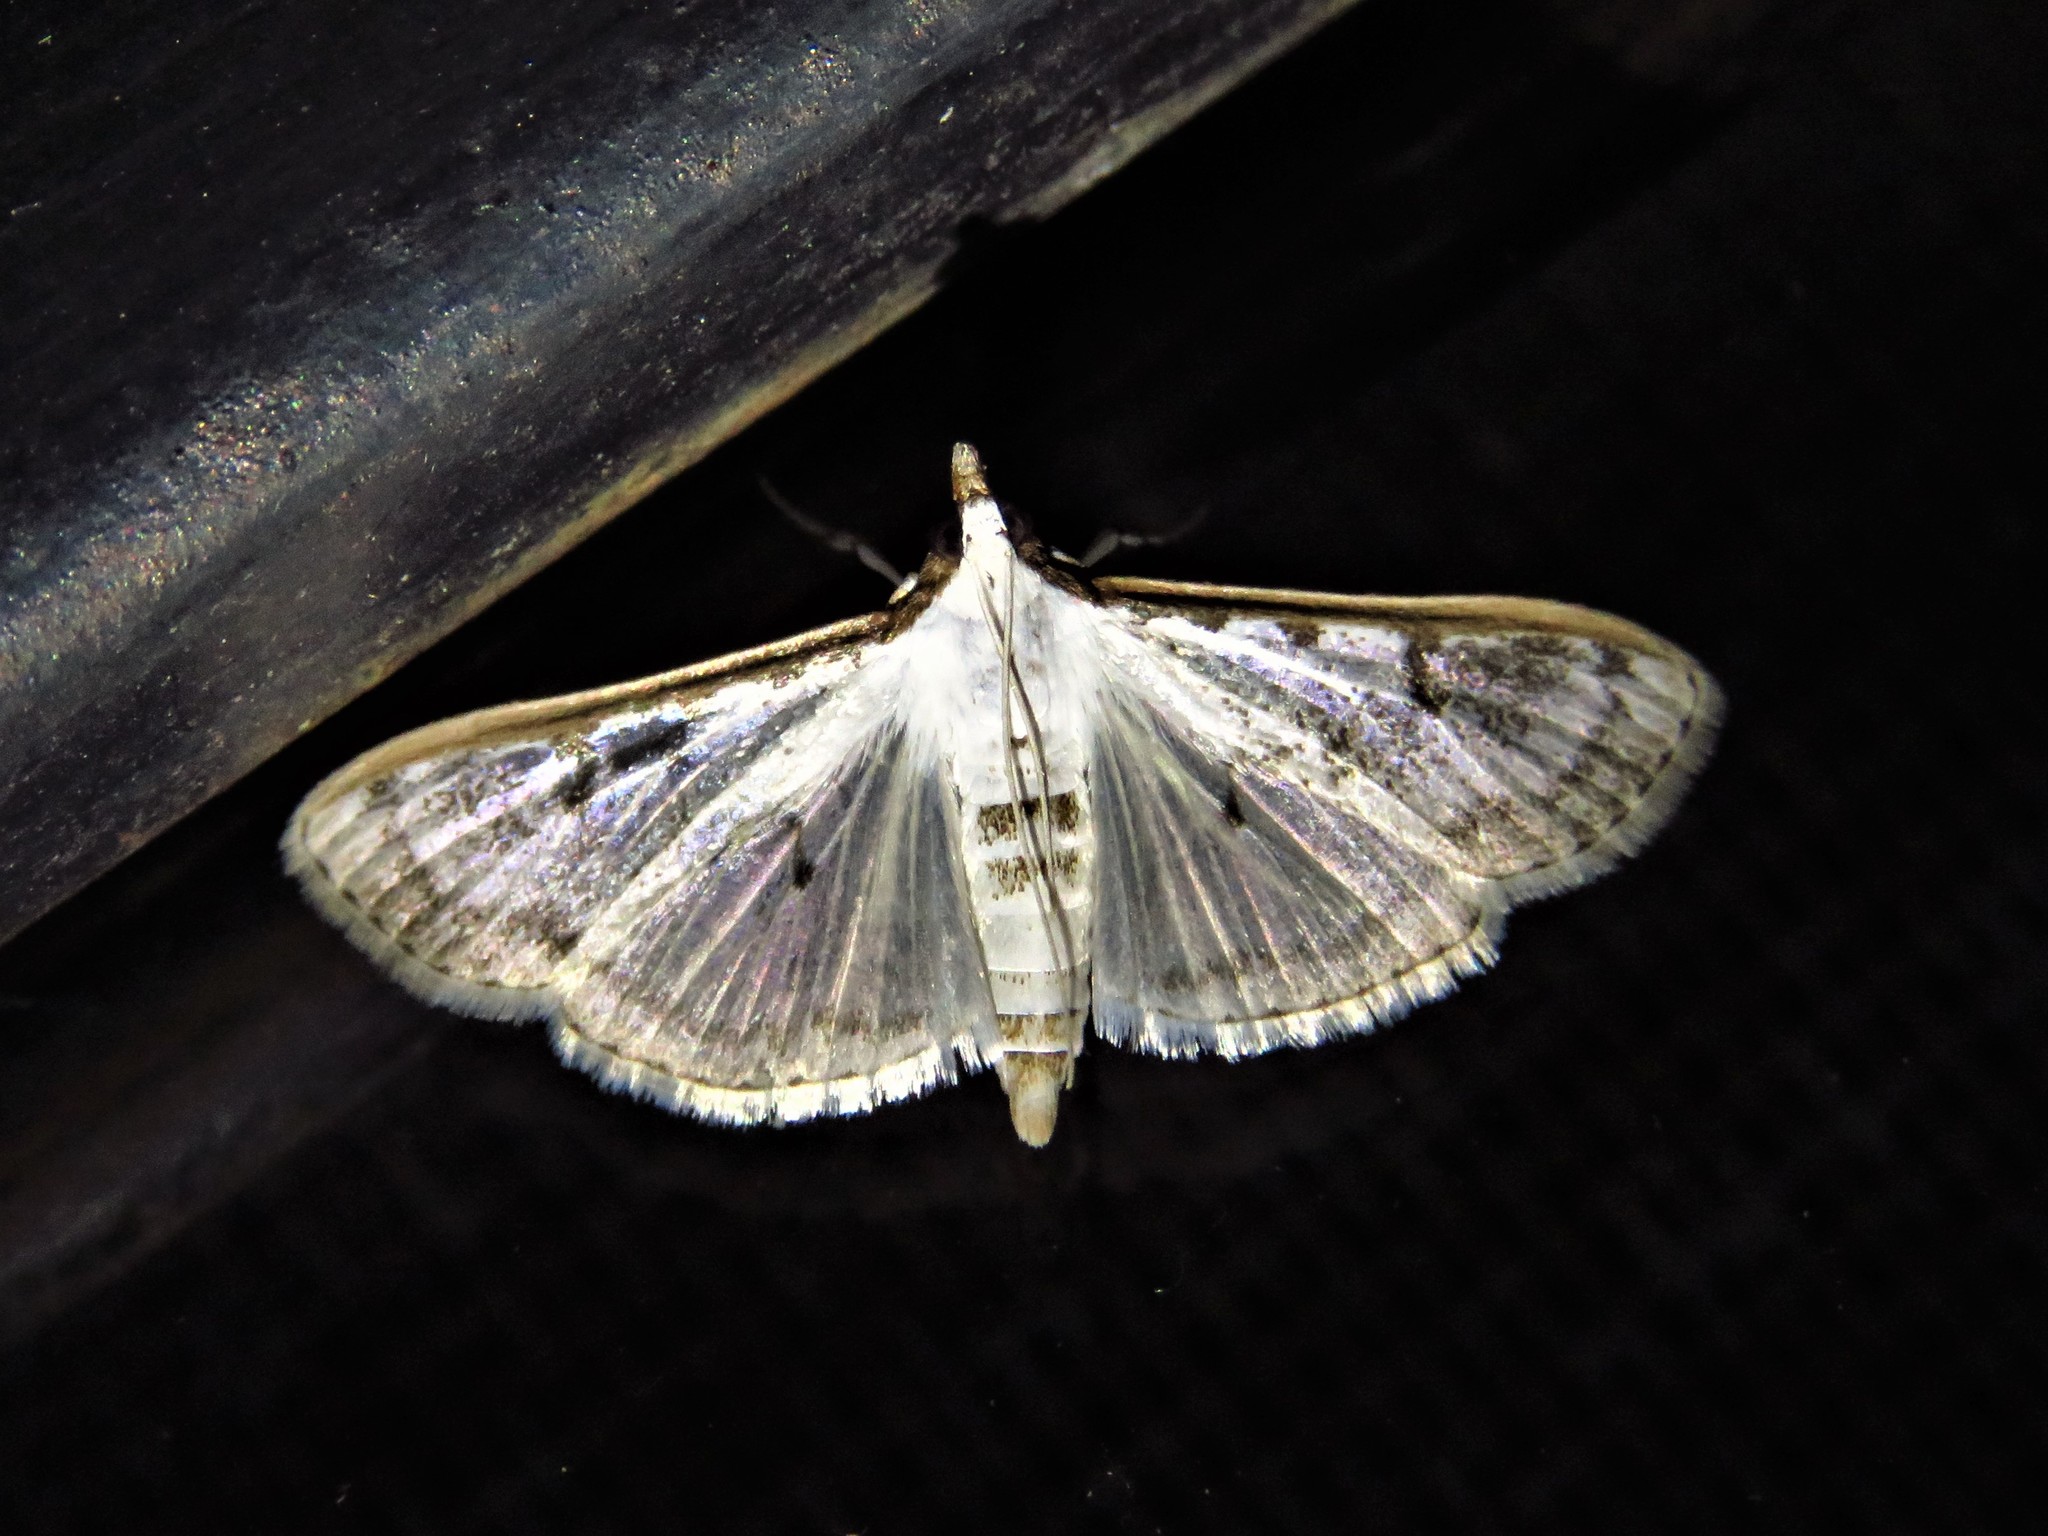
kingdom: Animalia
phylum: Arthropoda
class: Insecta
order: Lepidoptera
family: Crambidae
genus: Palpita
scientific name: Palpita gracilalis
